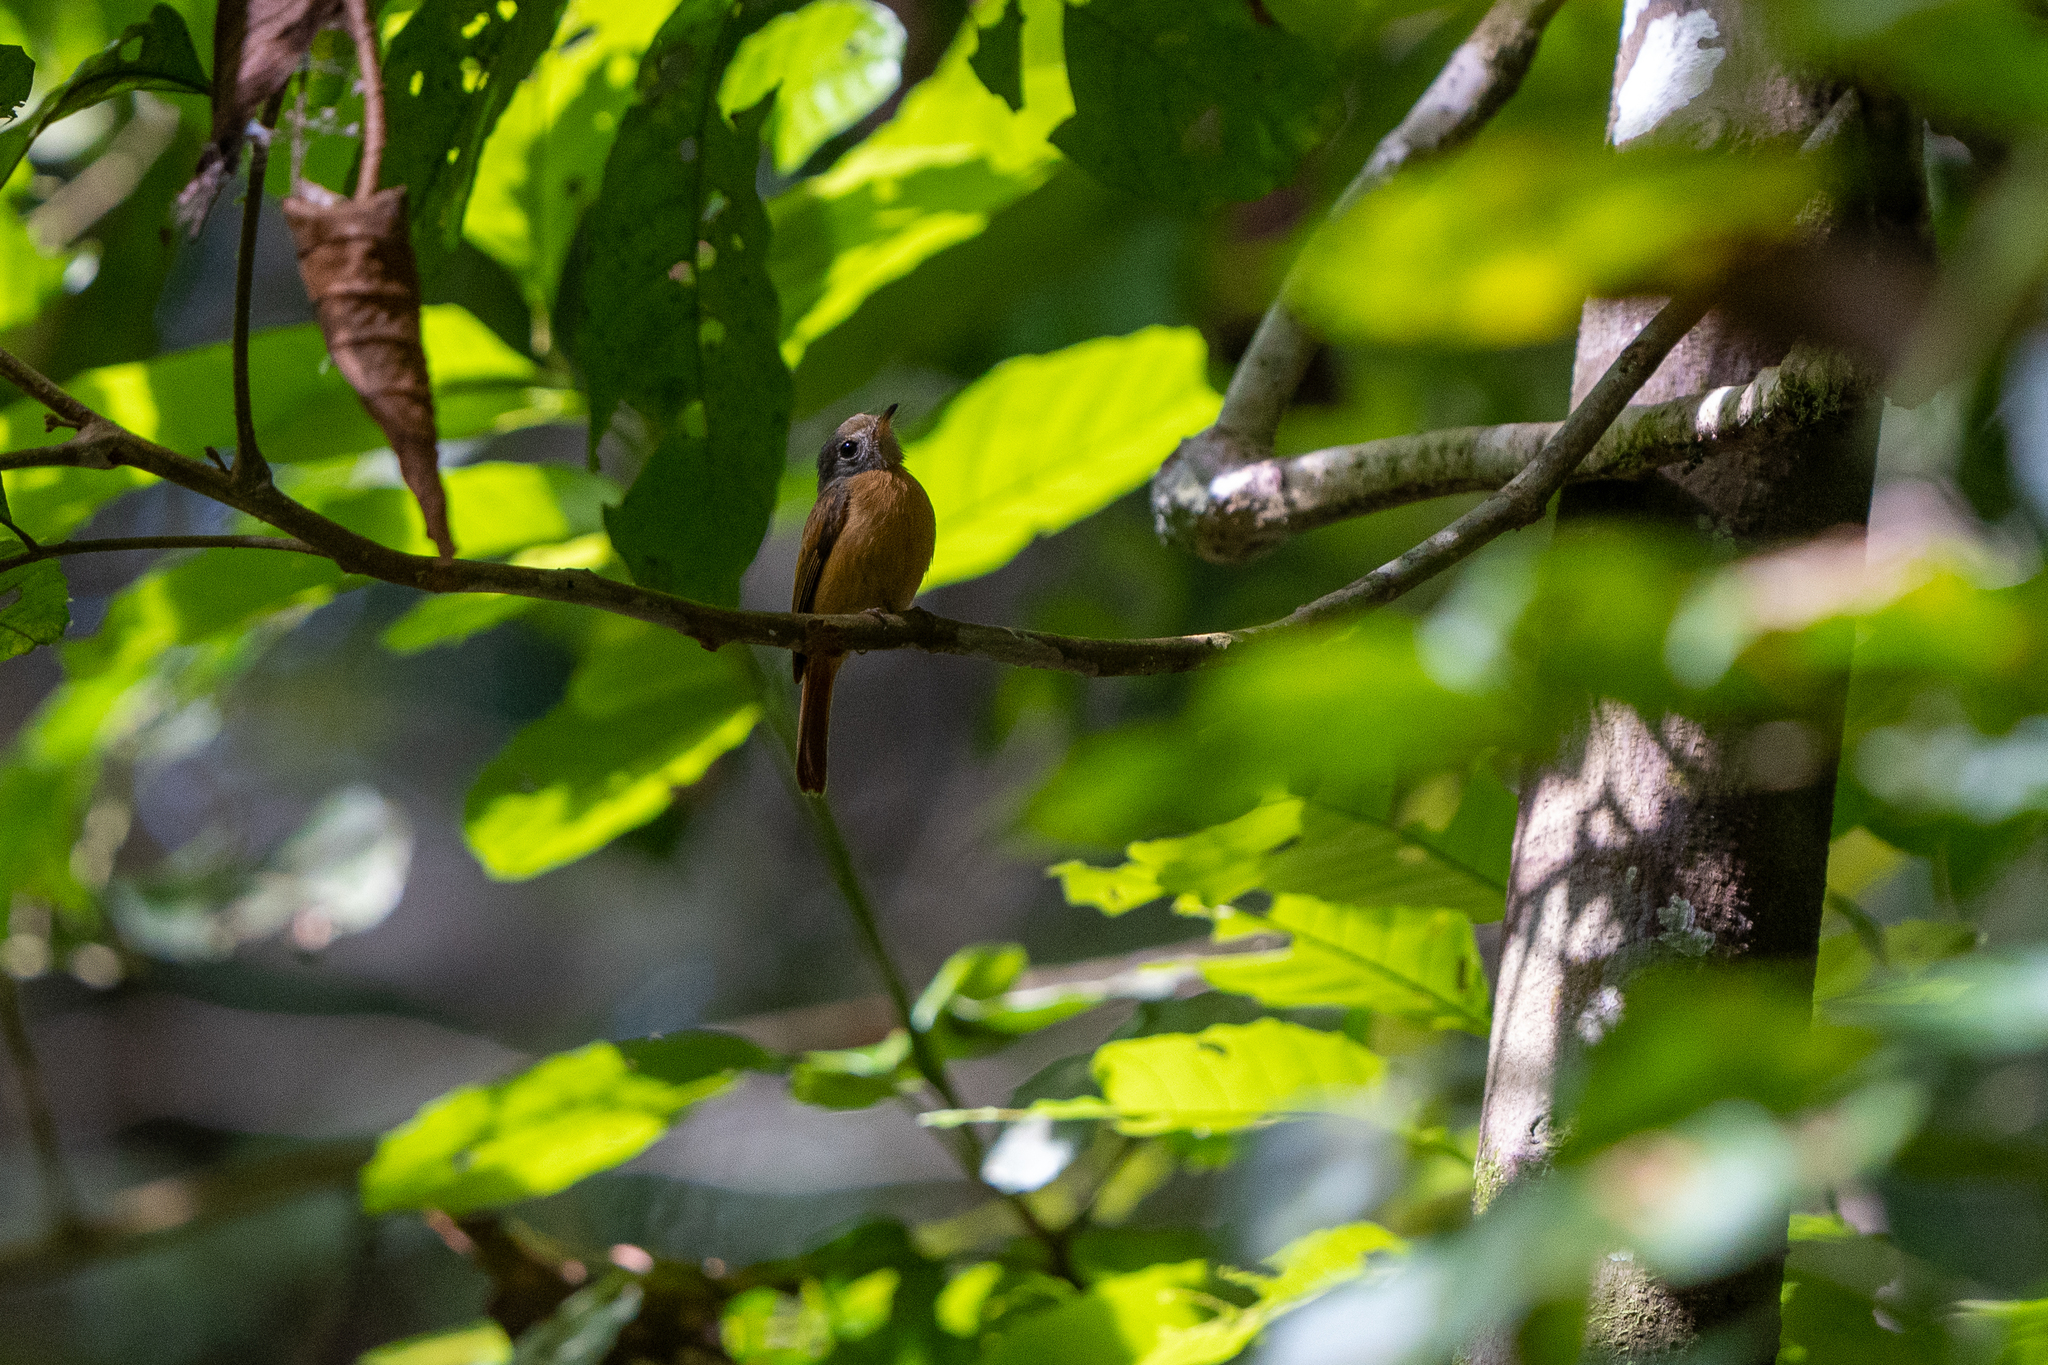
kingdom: Animalia
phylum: Chordata
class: Aves
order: Passeriformes
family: Tyrannidae
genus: Terenotriccus
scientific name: Terenotriccus erythrurus
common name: Ruddy-tailed flycatcher
